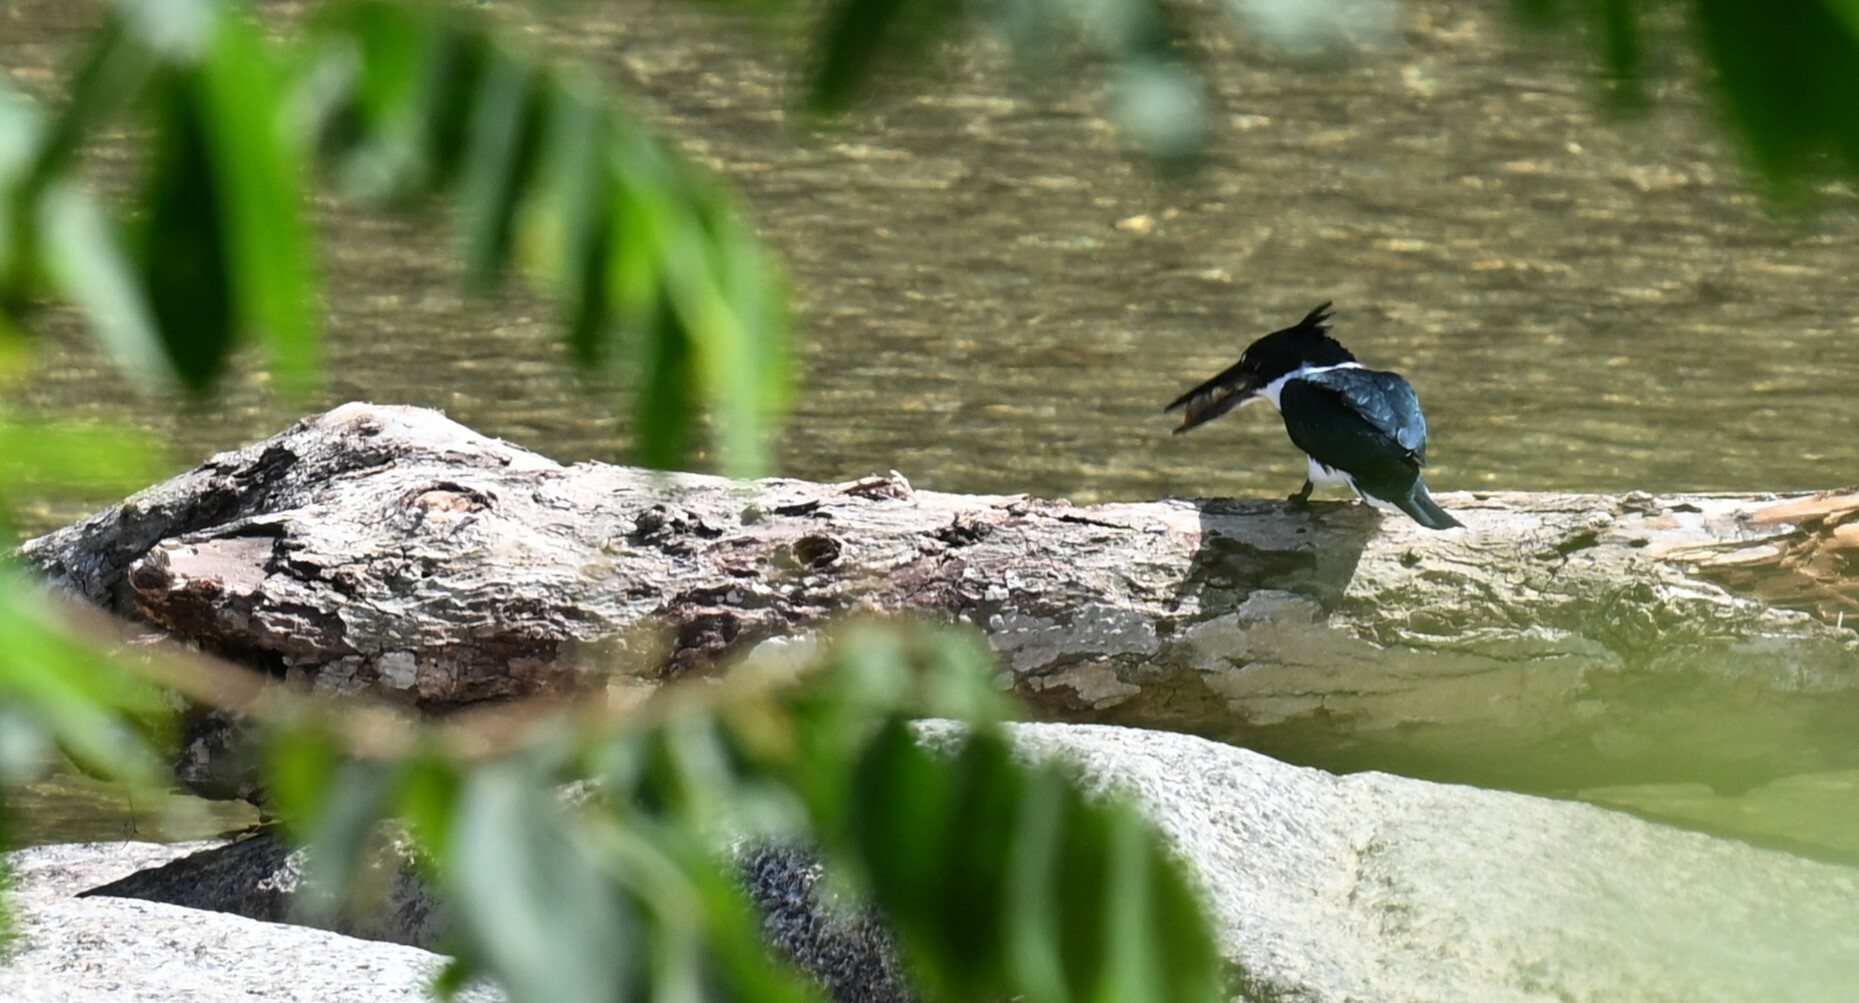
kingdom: Animalia
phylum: Chordata
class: Aves
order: Coraciiformes
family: Alcedinidae
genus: Chloroceryle
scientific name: Chloroceryle amazona
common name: Amazon kingfisher
